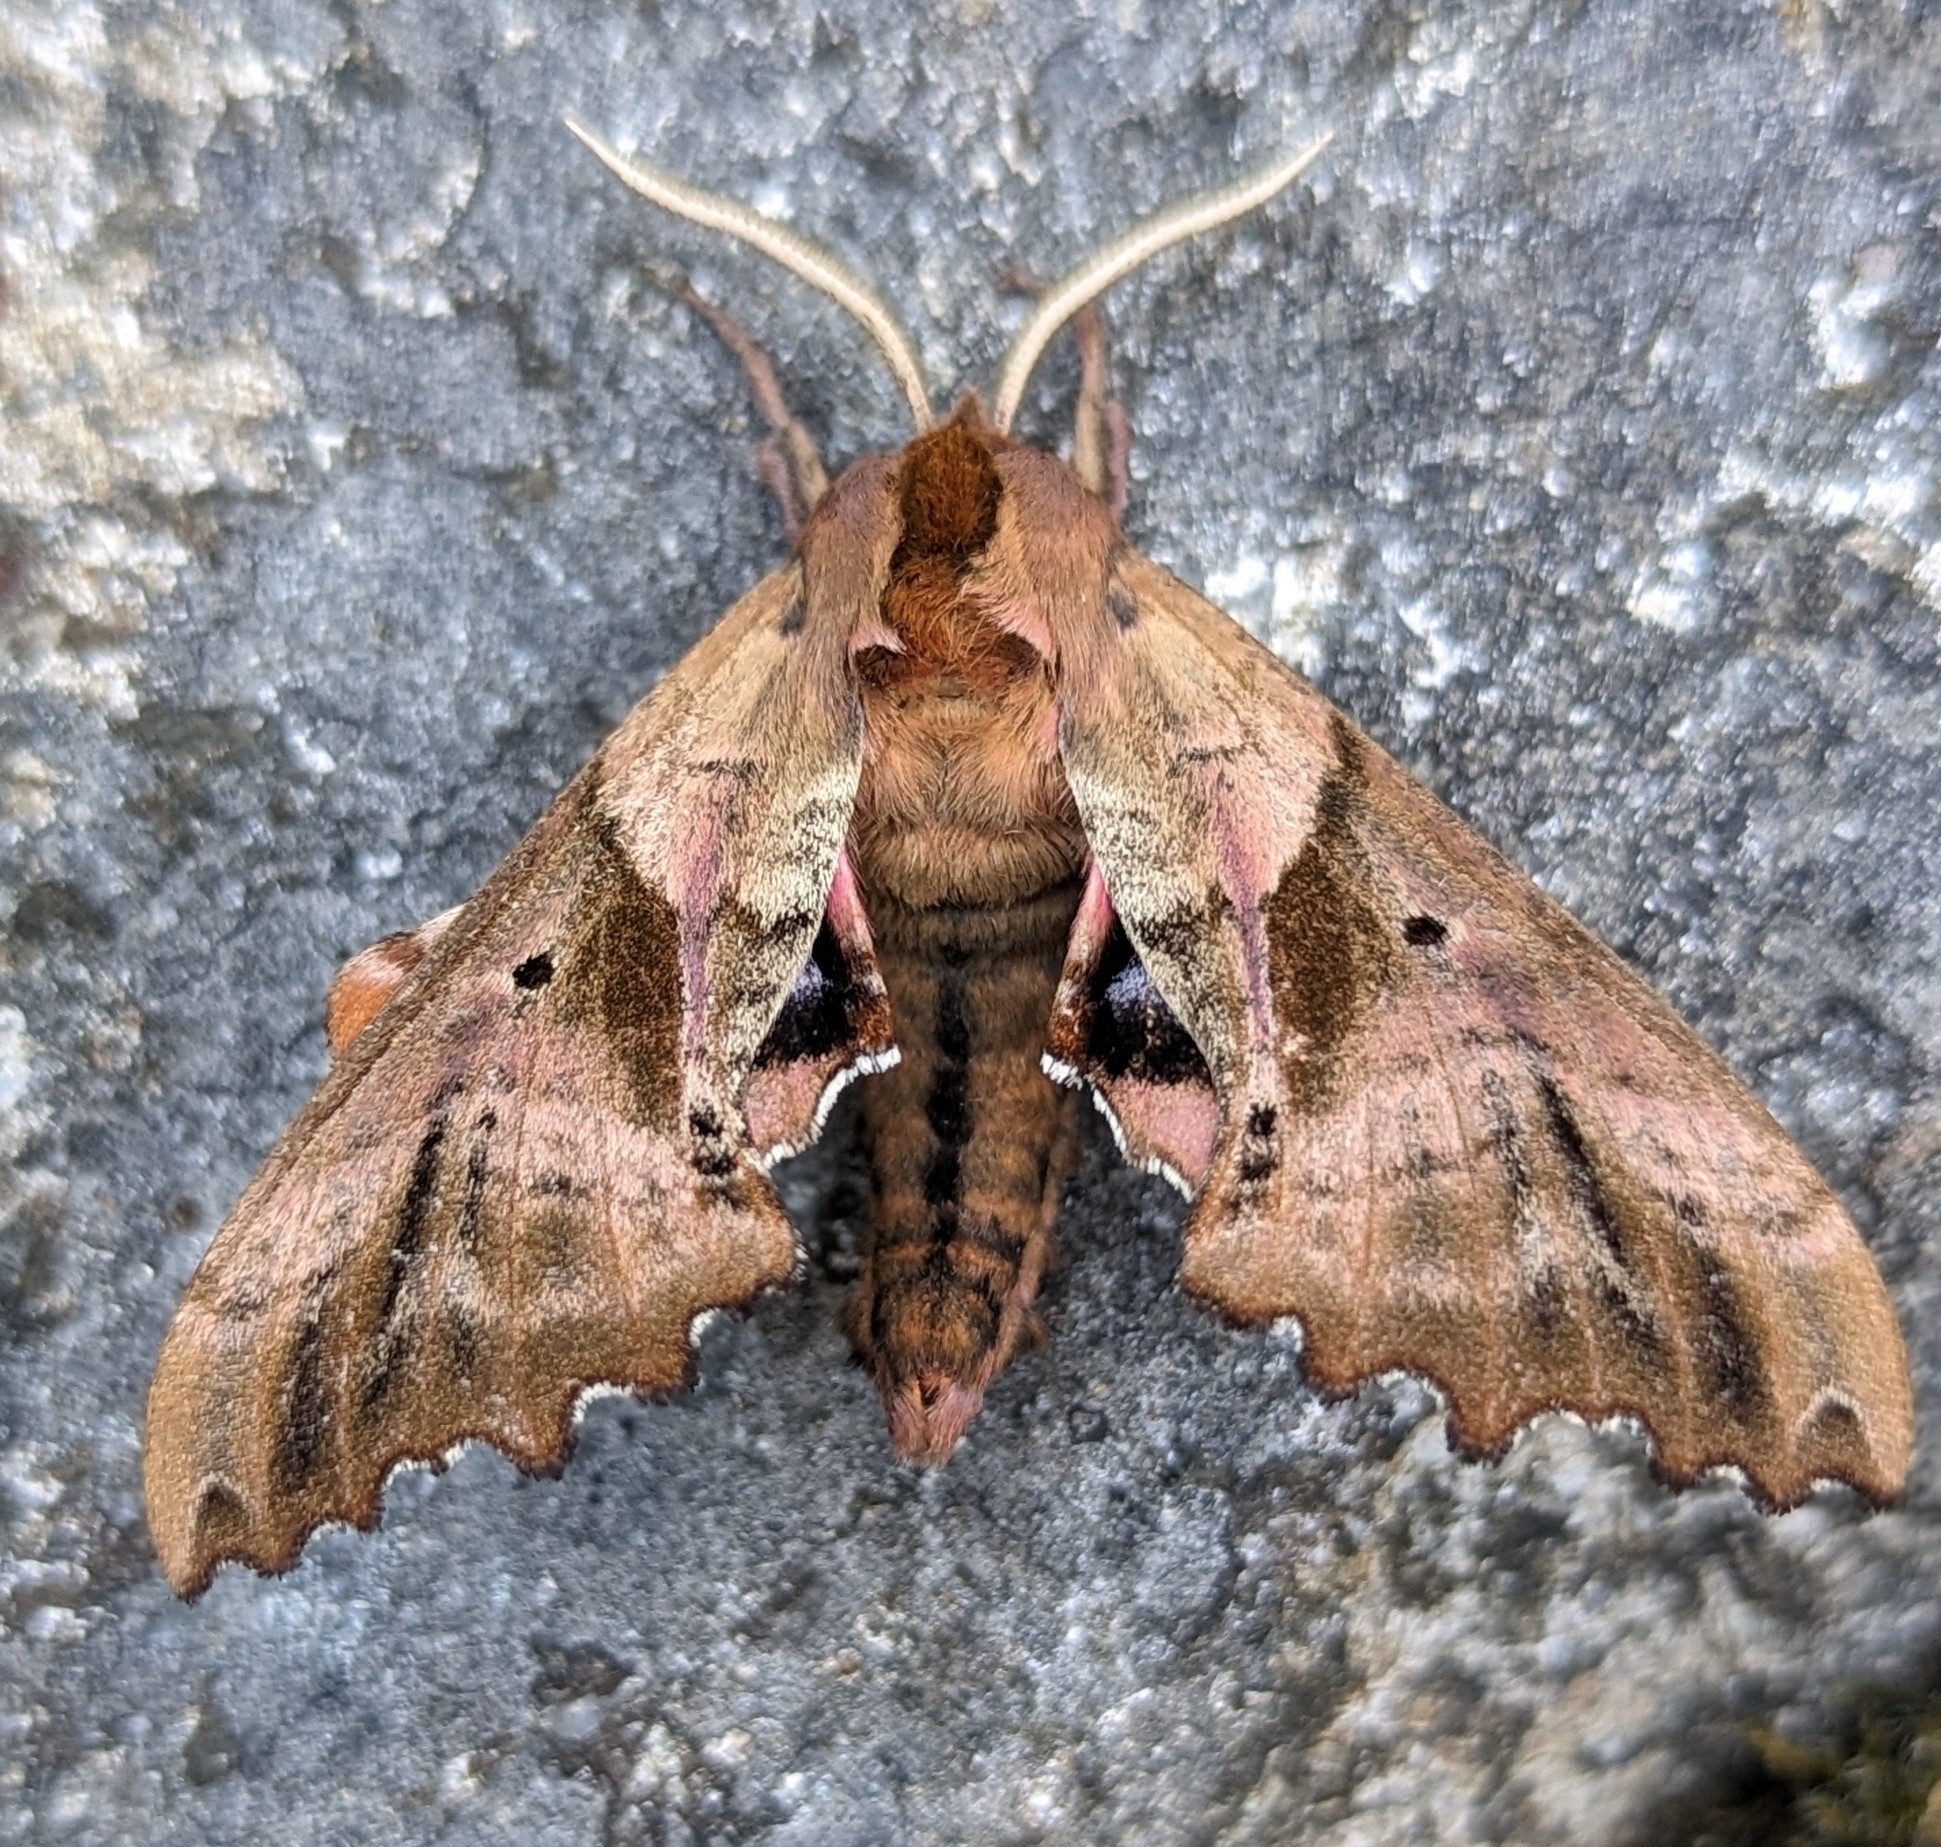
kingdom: Animalia
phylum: Arthropoda
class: Insecta
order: Lepidoptera
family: Sphingidae
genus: Paonias
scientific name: Paonias excaecata
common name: Blind-eyed sphinx
